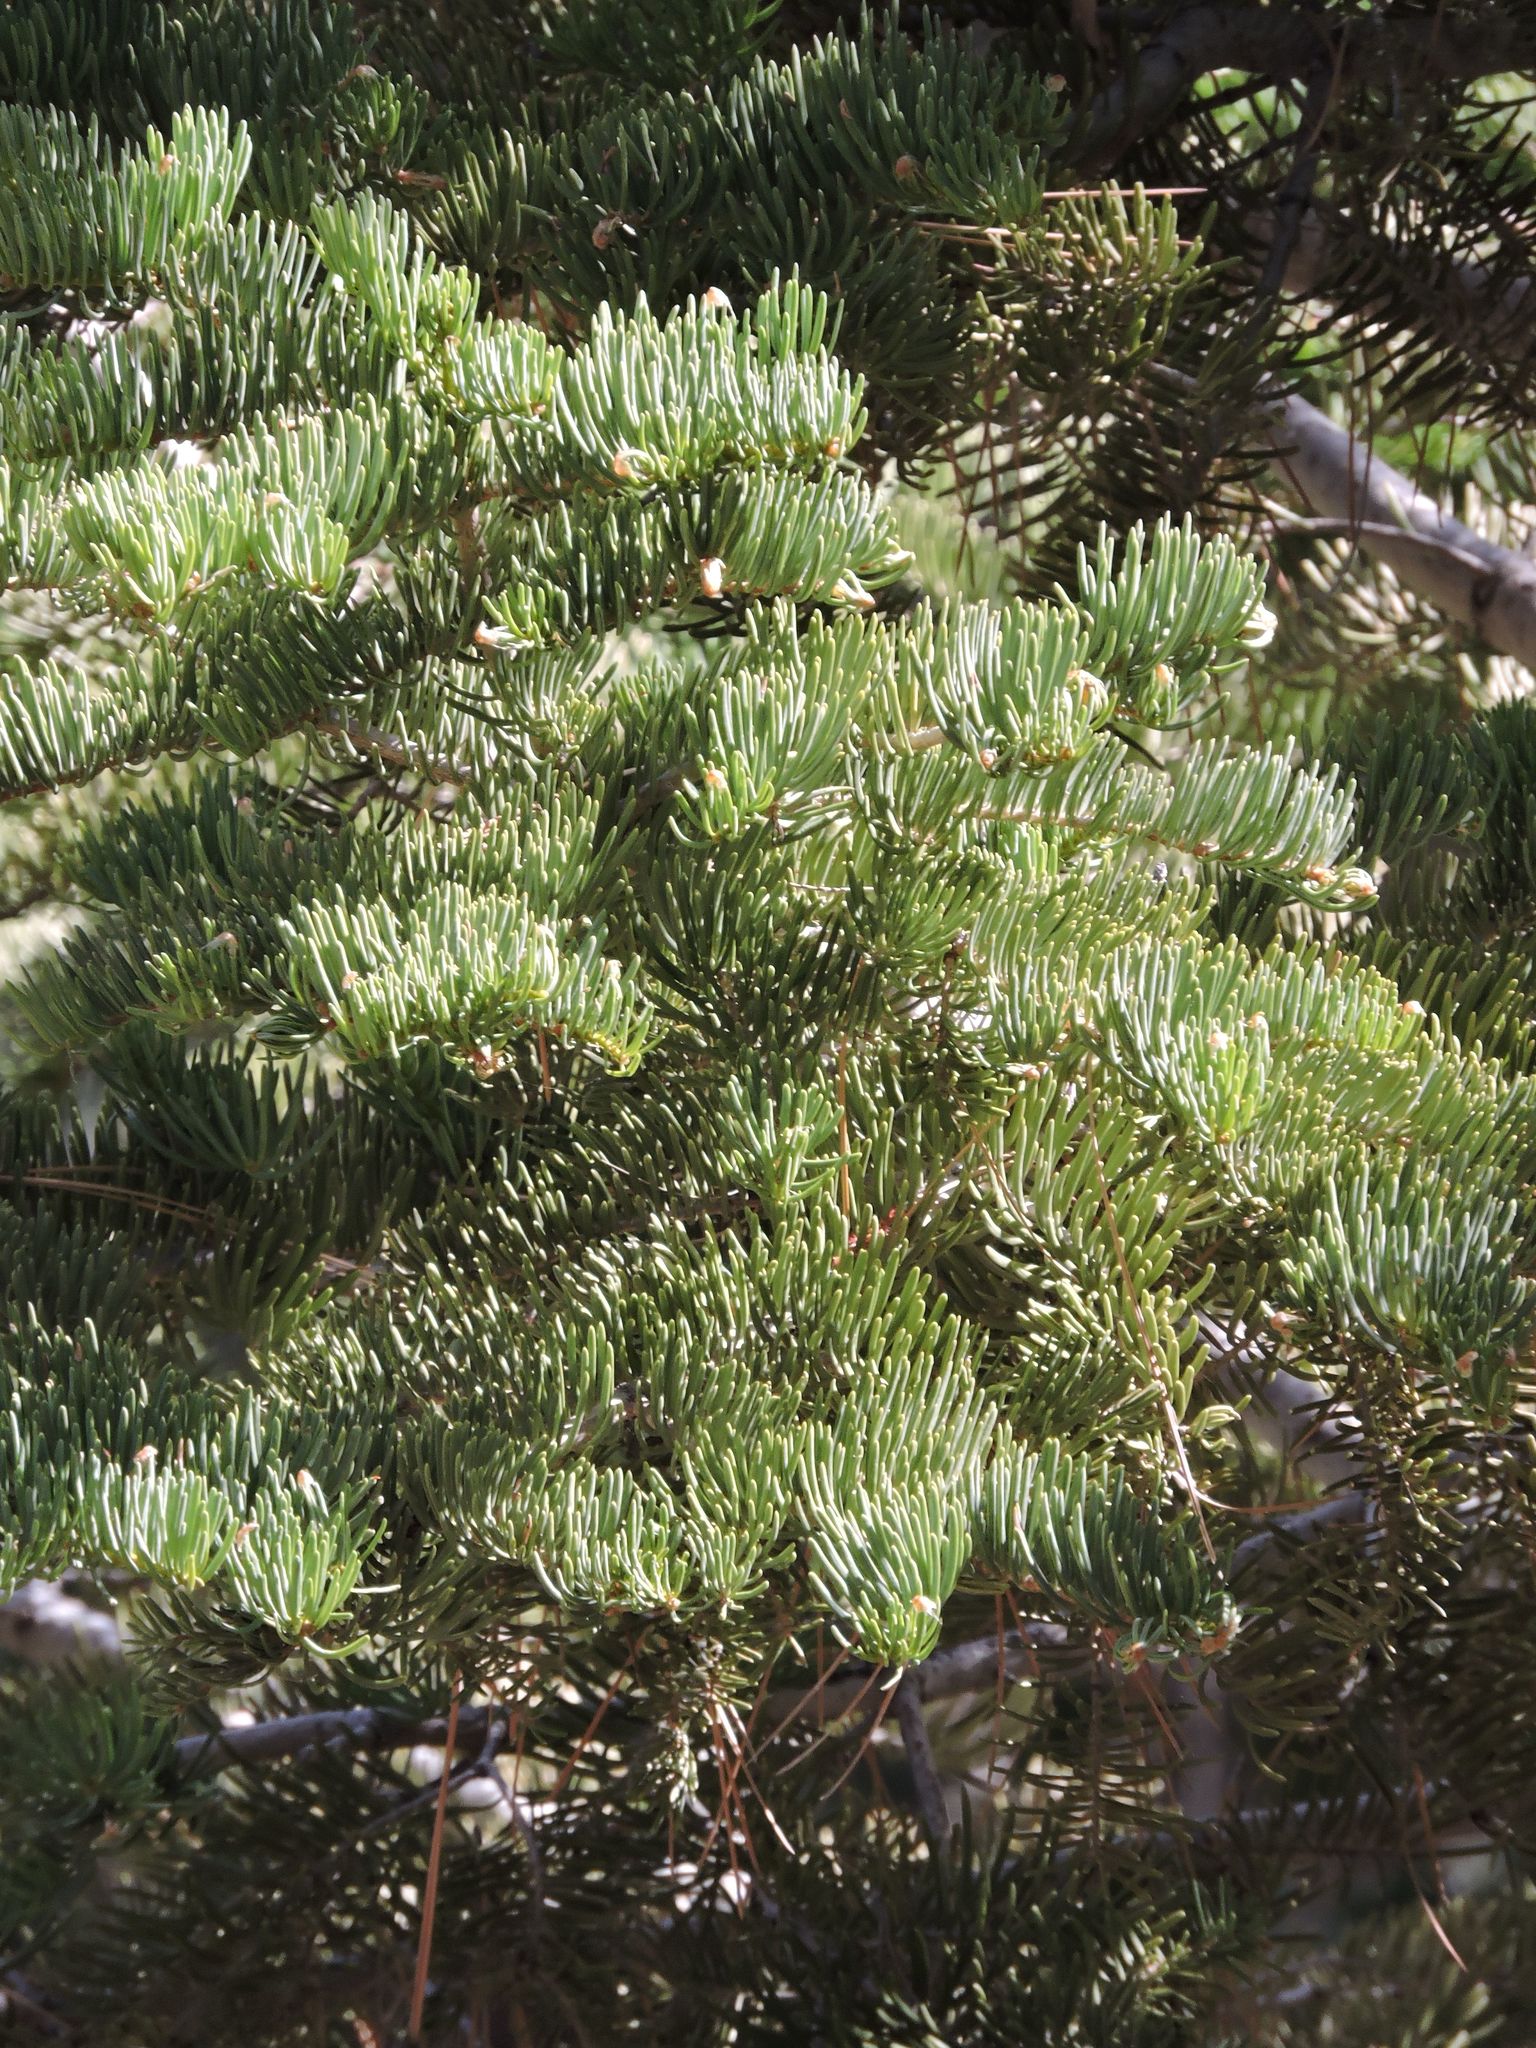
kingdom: Plantae
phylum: Tracheophyta
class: Pinopsida
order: Pinales
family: Pinaceae
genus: Abies
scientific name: Abies concolor
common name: Colorado fir
